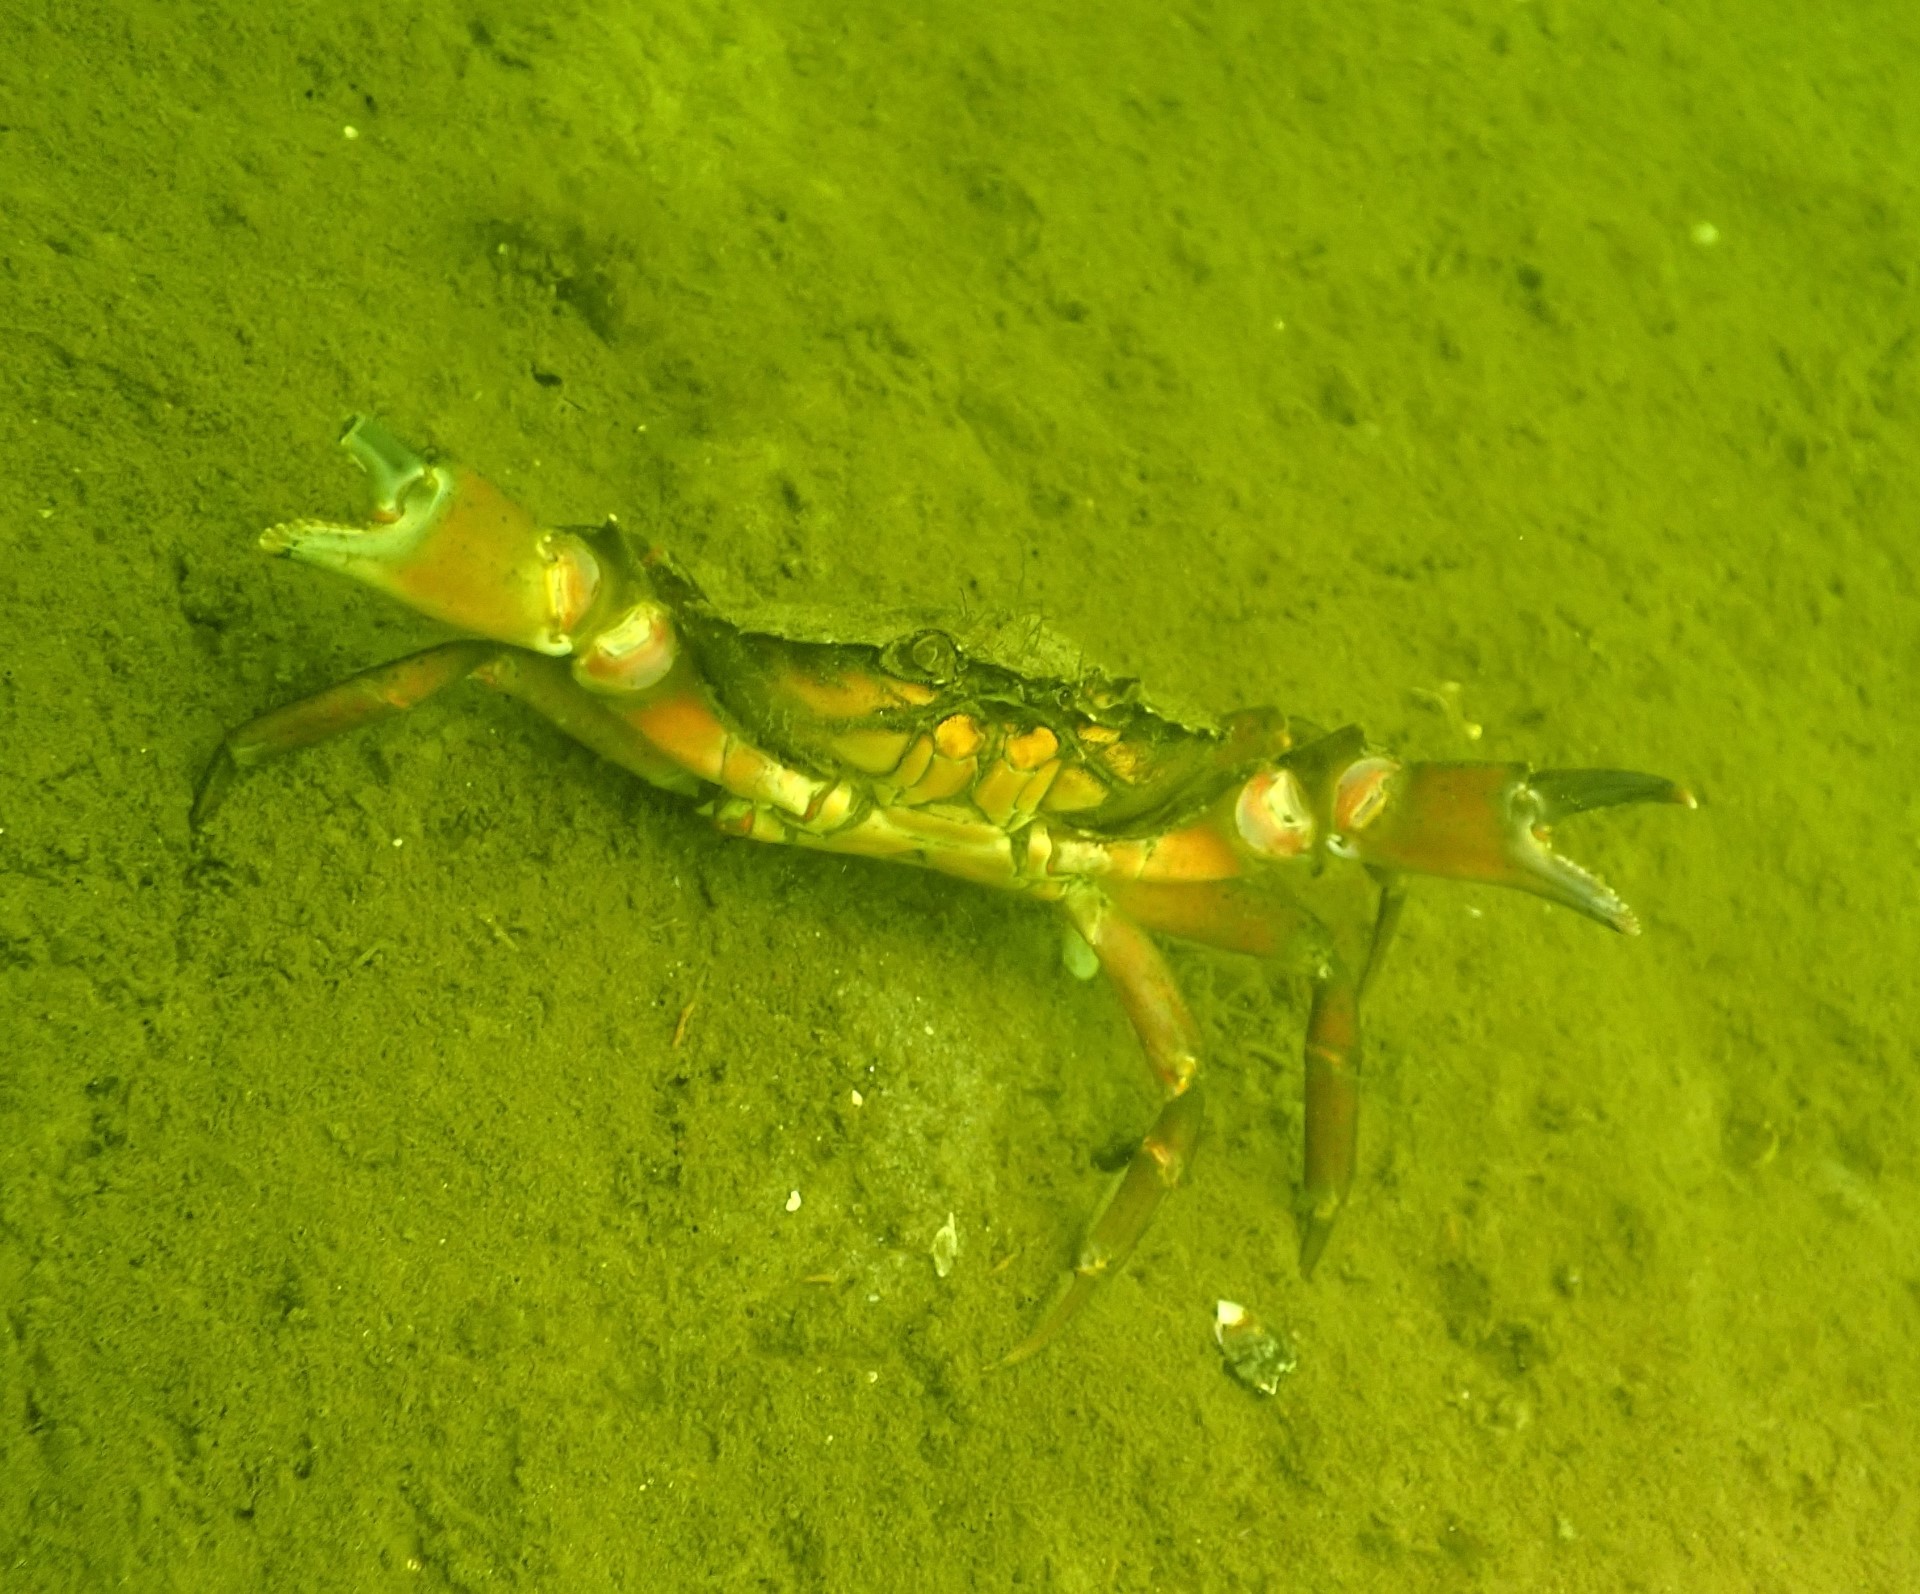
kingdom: Animalia
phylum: Arthropoda
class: Malacostraca
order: Decapoda
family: Carcinidae
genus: Carcinus
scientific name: Carcinus maenas
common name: European green crab
